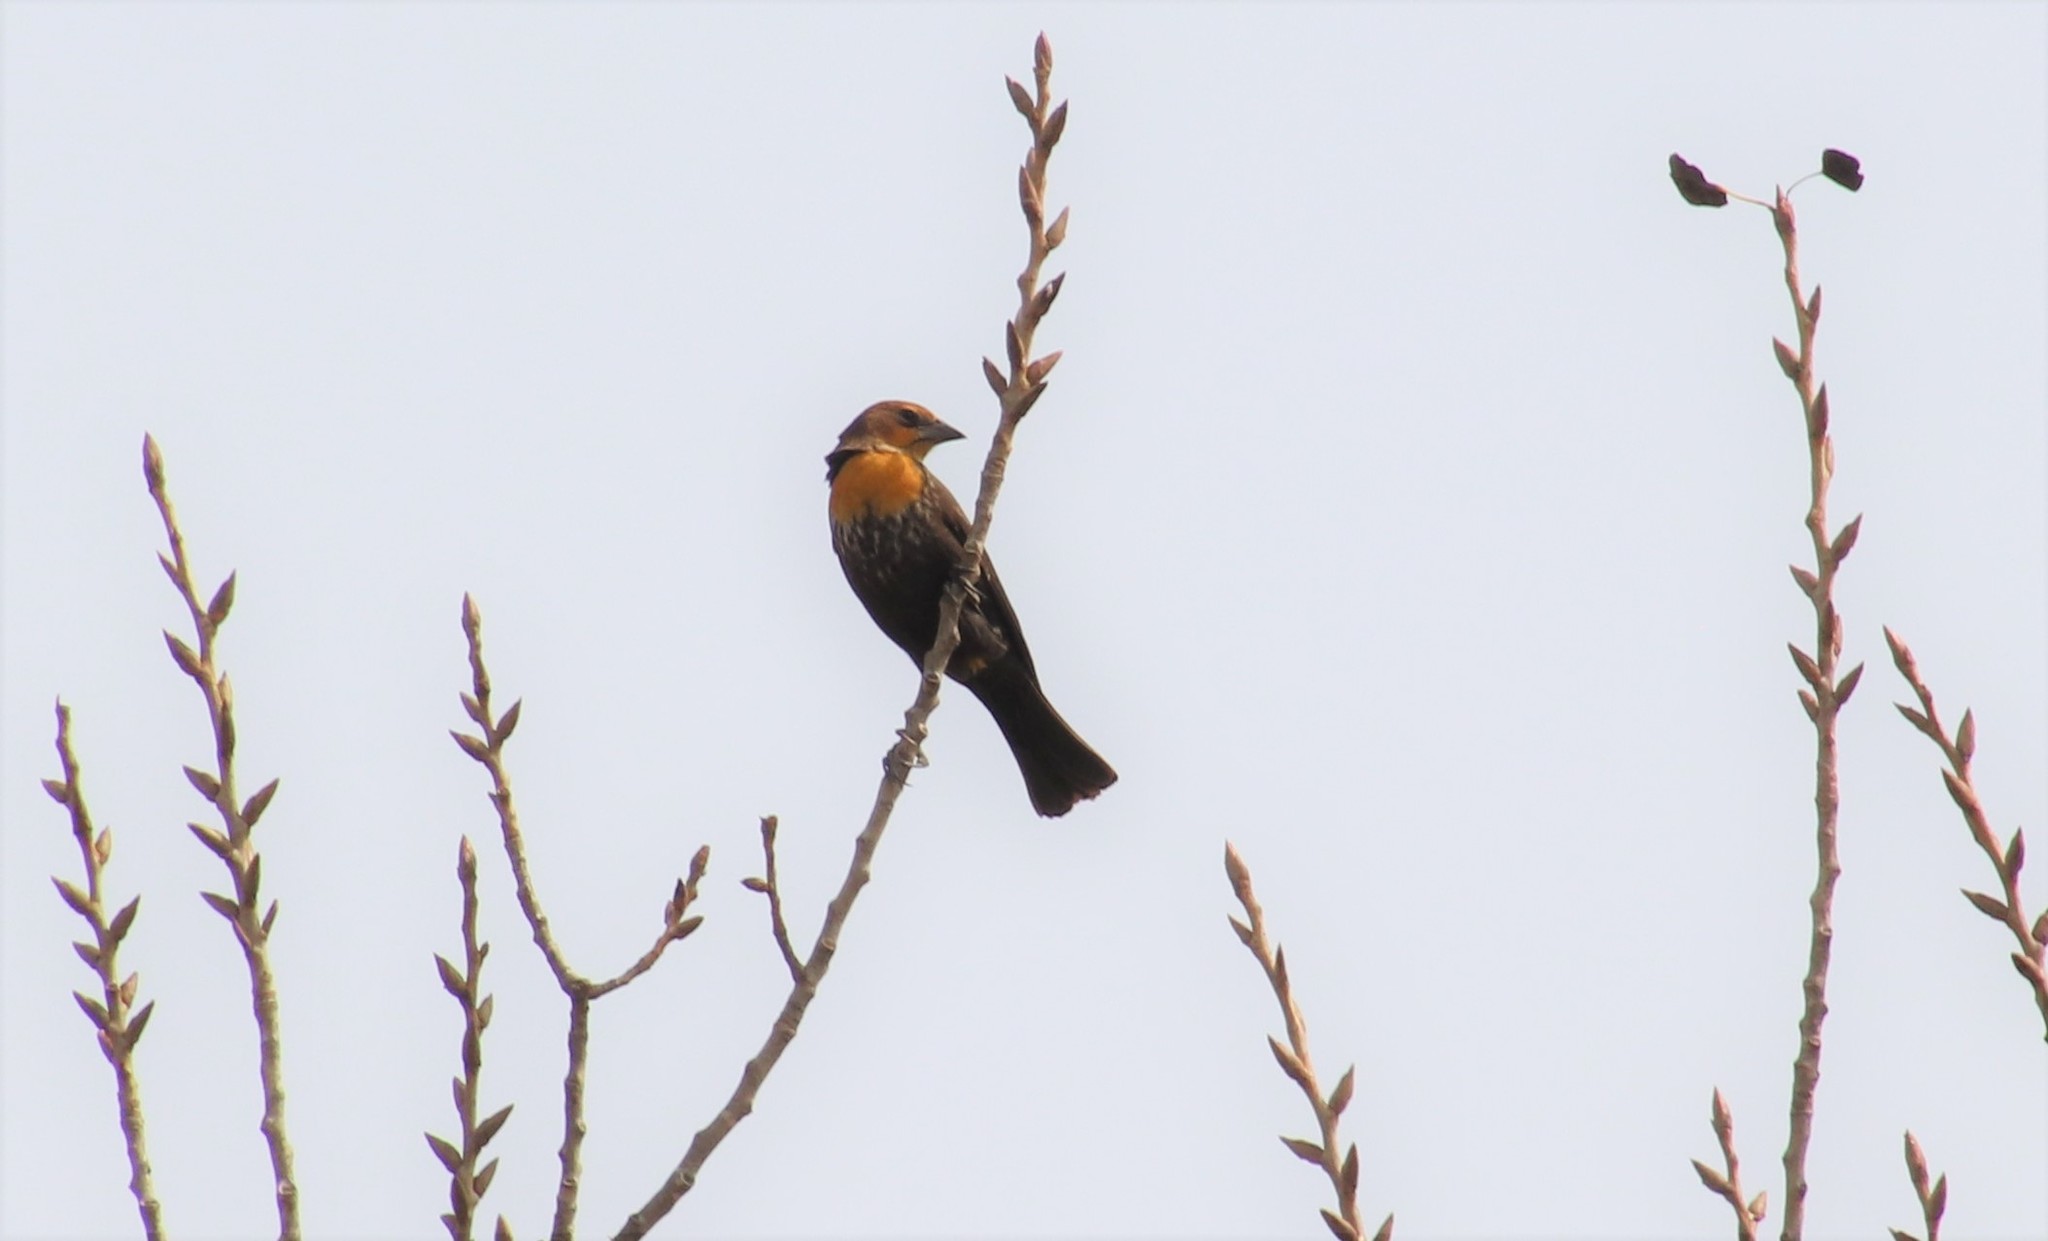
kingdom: Animalia
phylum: Chordata
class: Aves
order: Passeriformes
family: Icteridae
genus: Xanthocephalus
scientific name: Xanthocephalus xanthocephalus
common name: Yellow-headed blackbird
